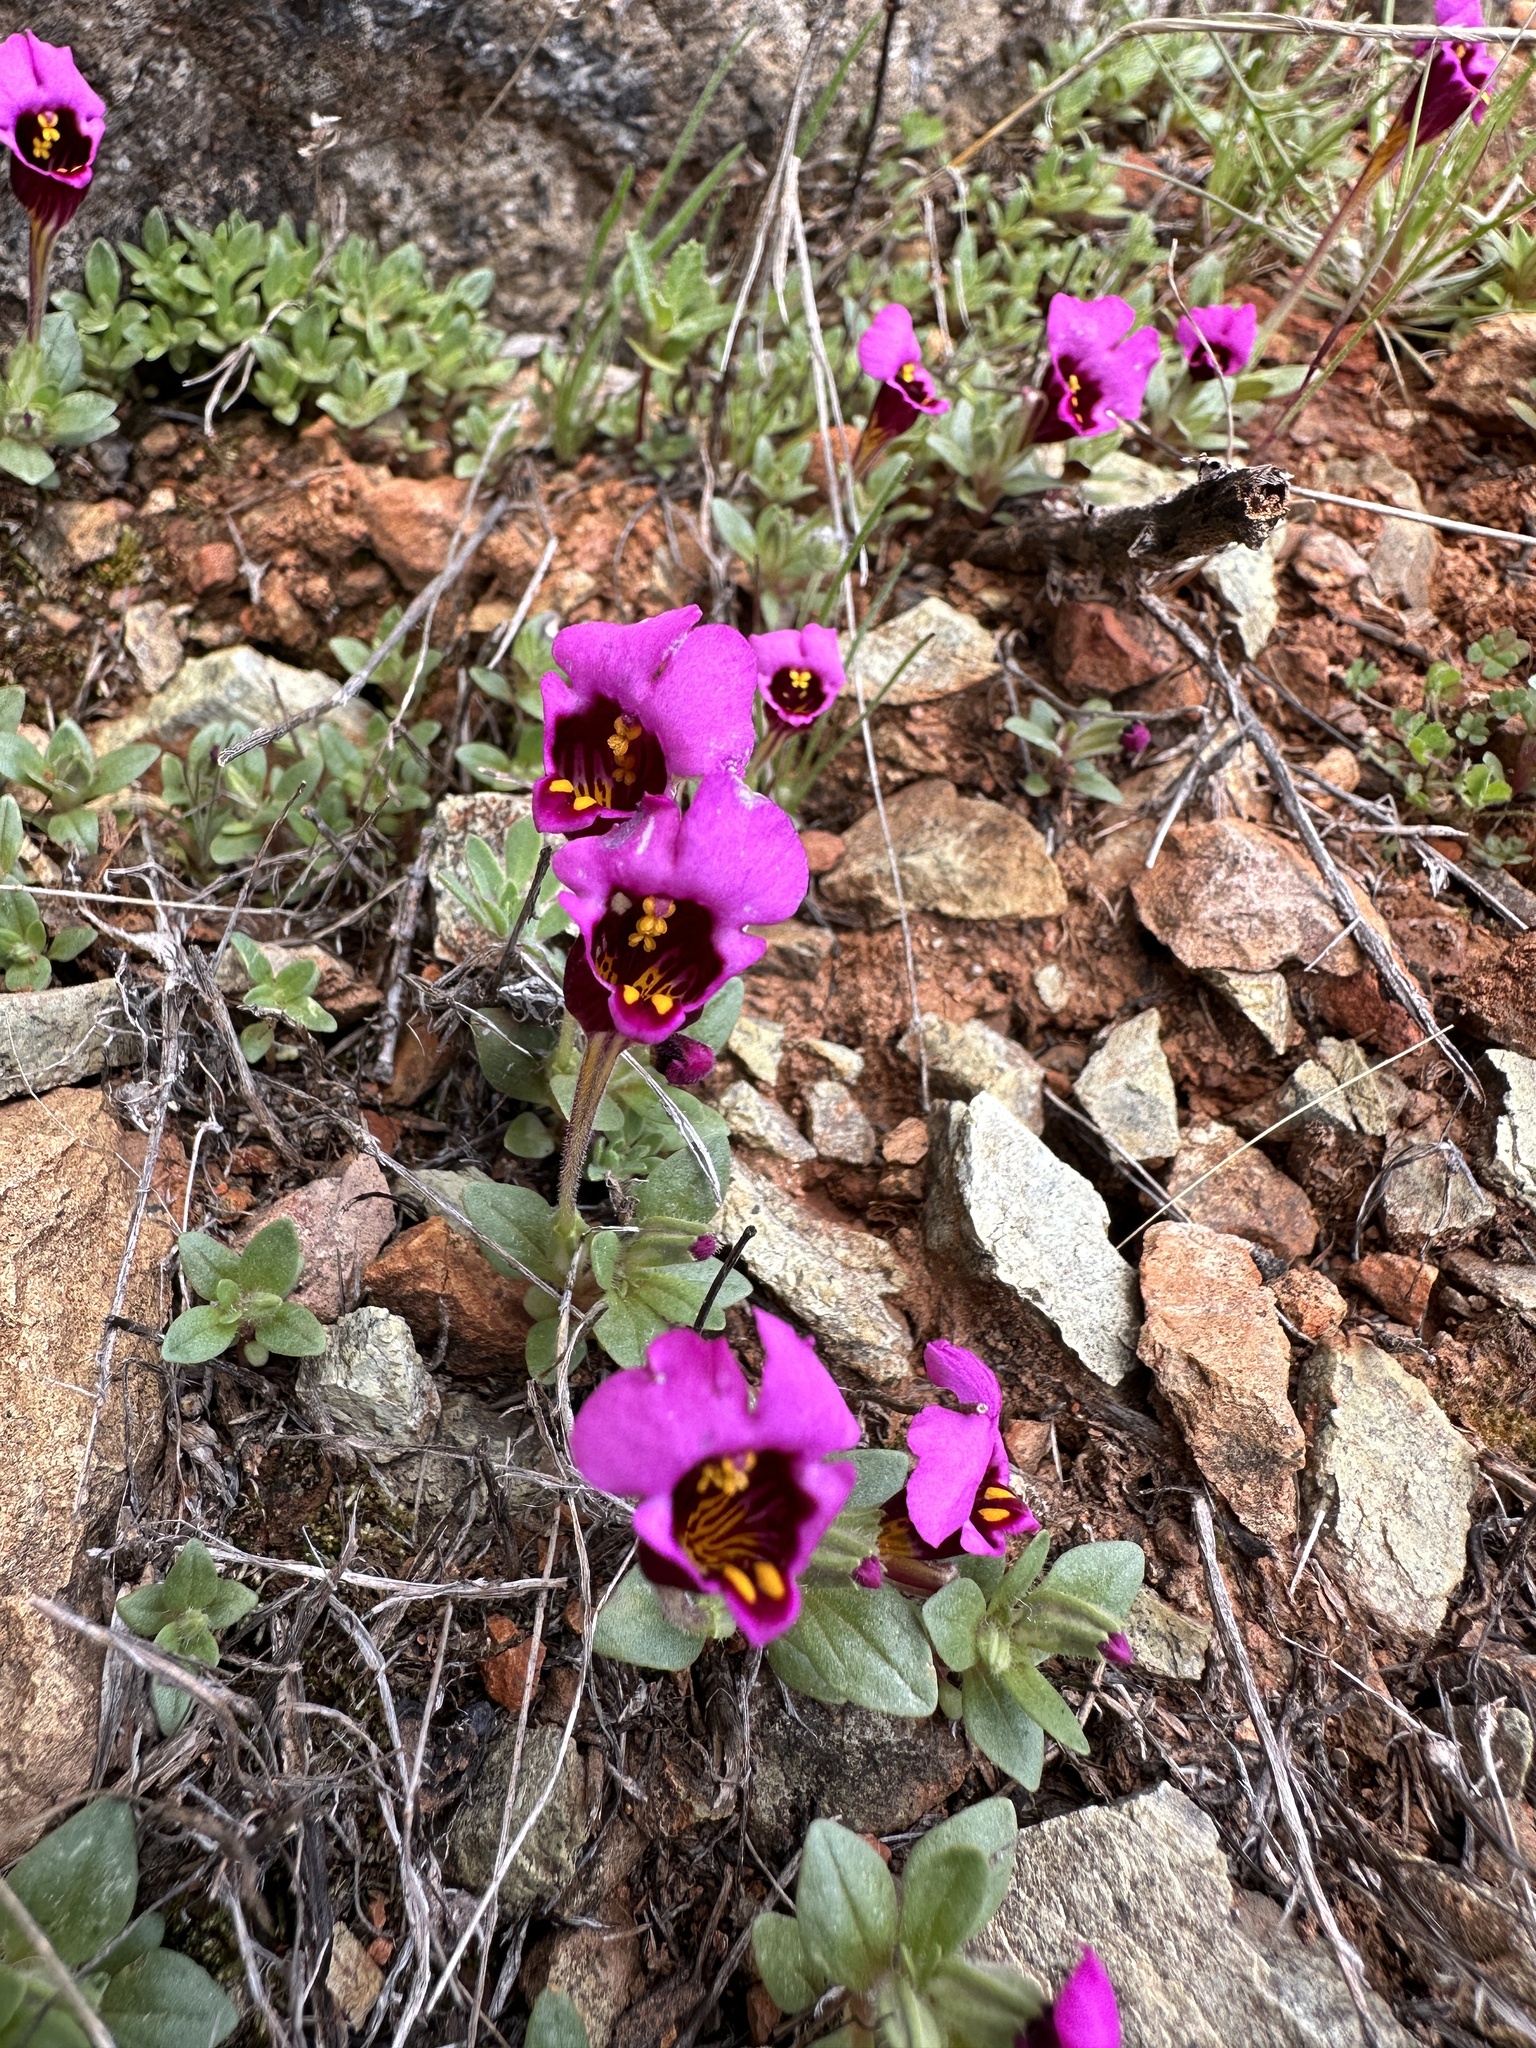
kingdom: Plantae
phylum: Tracheophyta
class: Magnoliopsida
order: Lamiales
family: Phrymaceae
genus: Diplacus
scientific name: Diplacus douglasii
